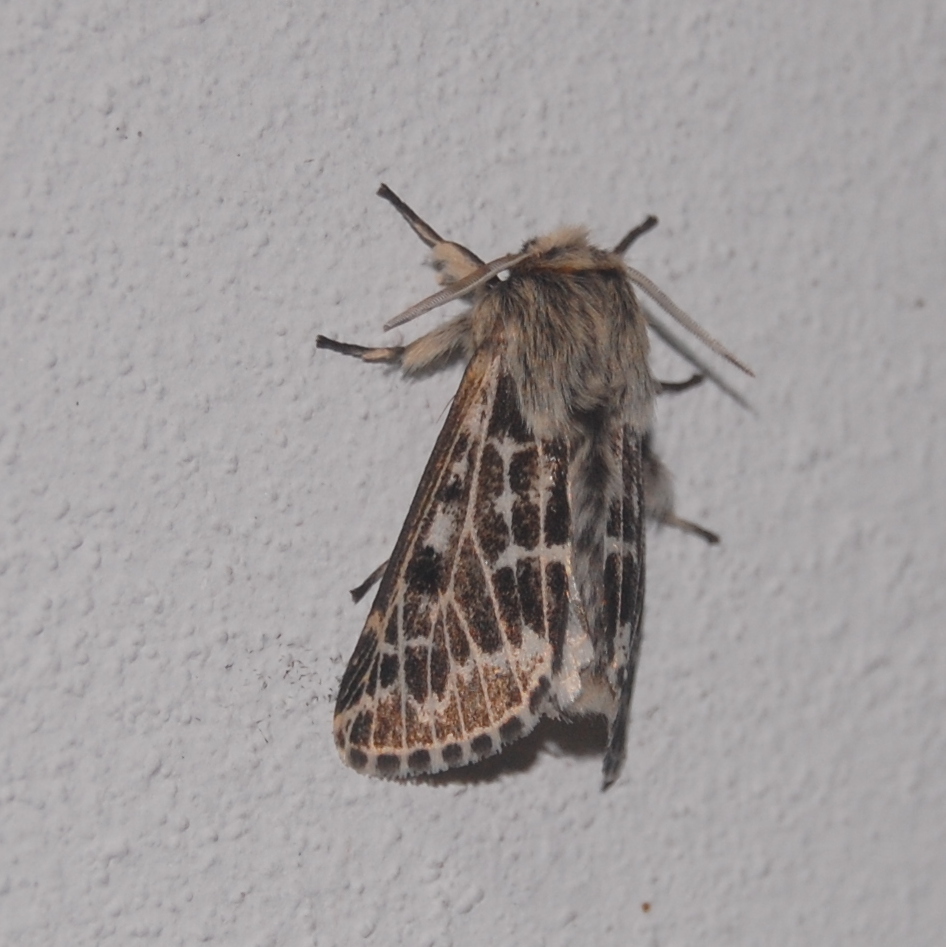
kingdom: Animalia
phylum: Arthropoda
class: Insecta
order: Lepidoptera
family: Erebidae
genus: Paracles
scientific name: Paracles variegata
